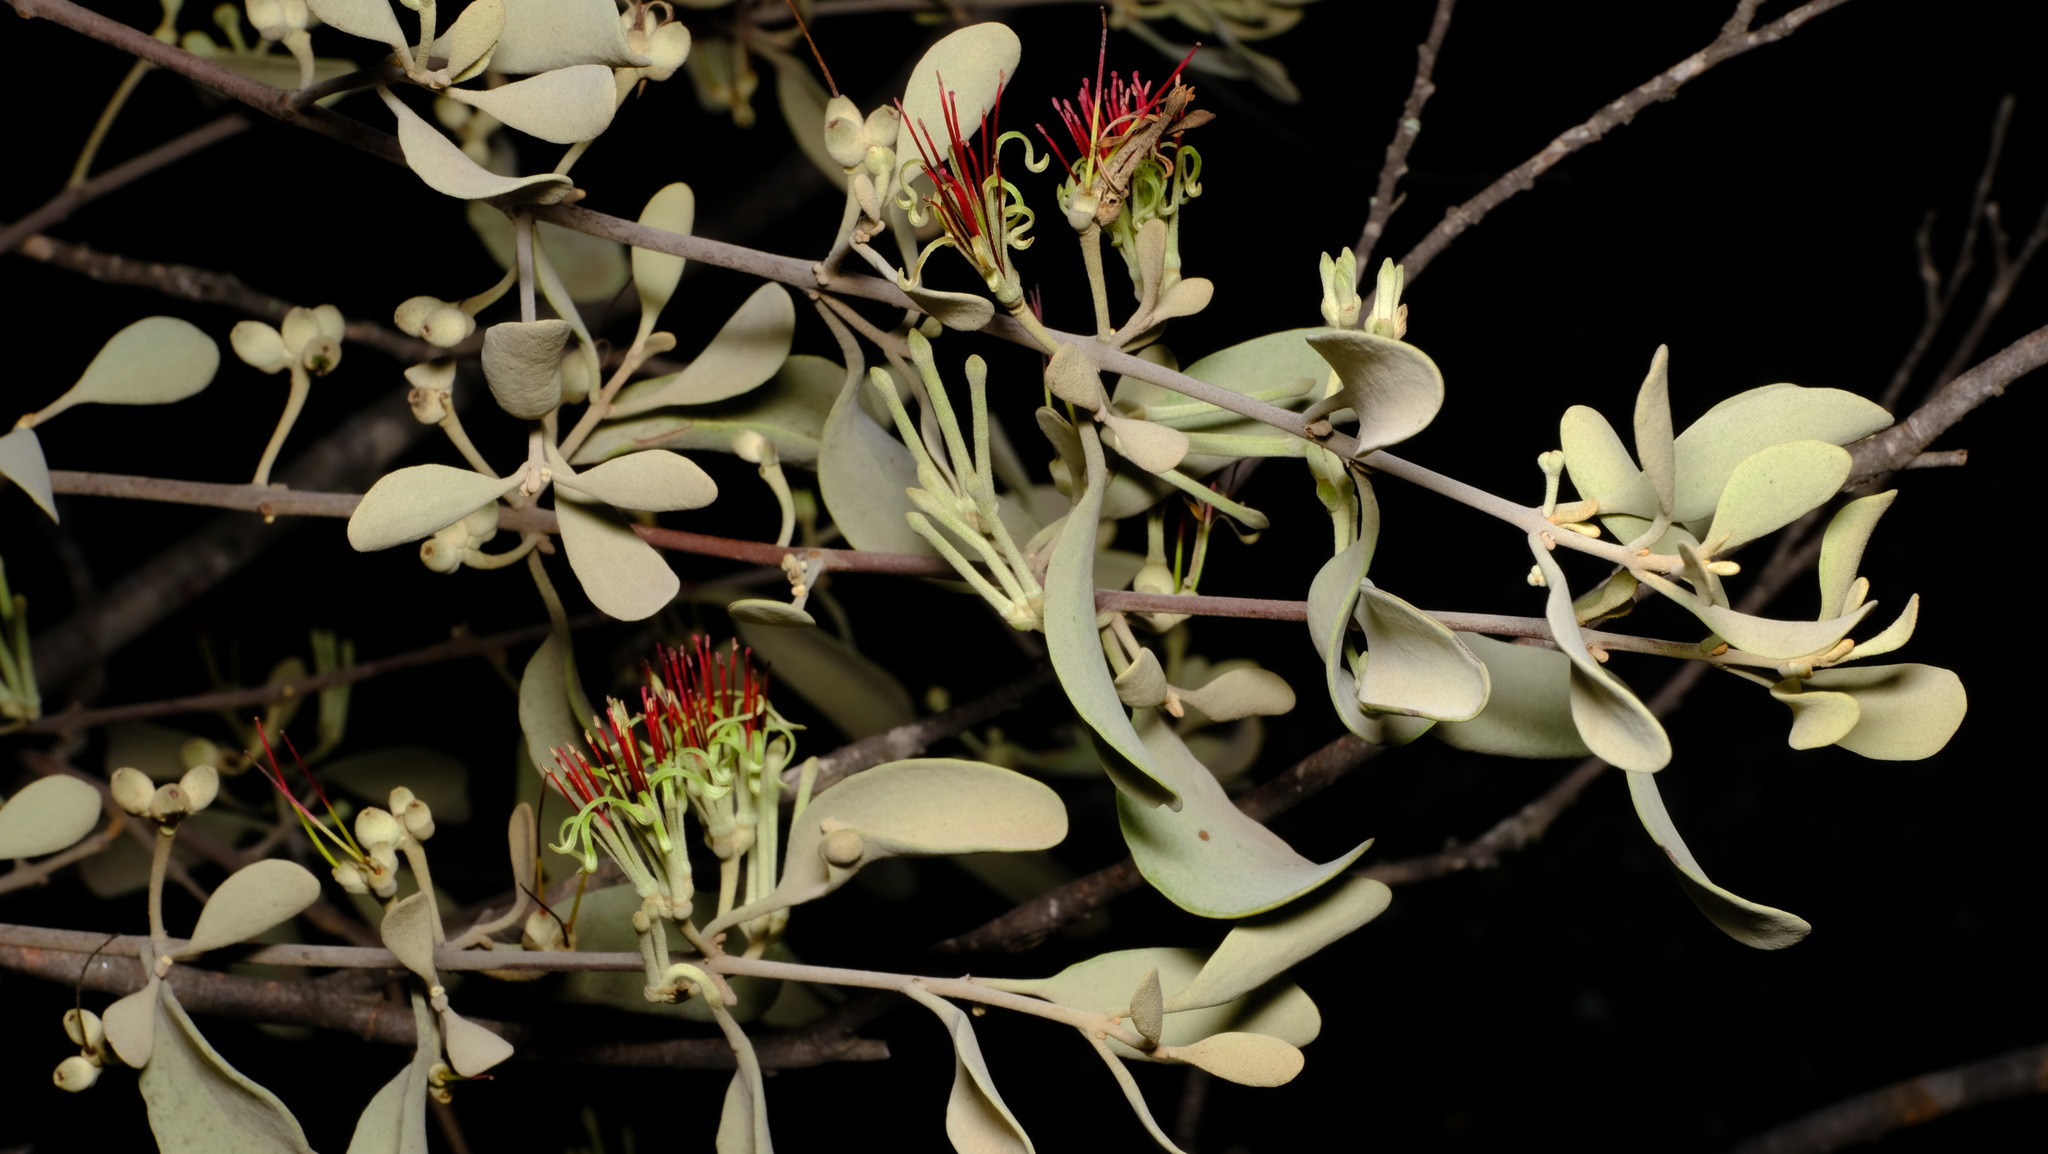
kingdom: Plantae
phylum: Tracheophyta
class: Magnoliopsida
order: Santalales
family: Loranthaceae
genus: Amyema
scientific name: Amyema fitzgeraldii
